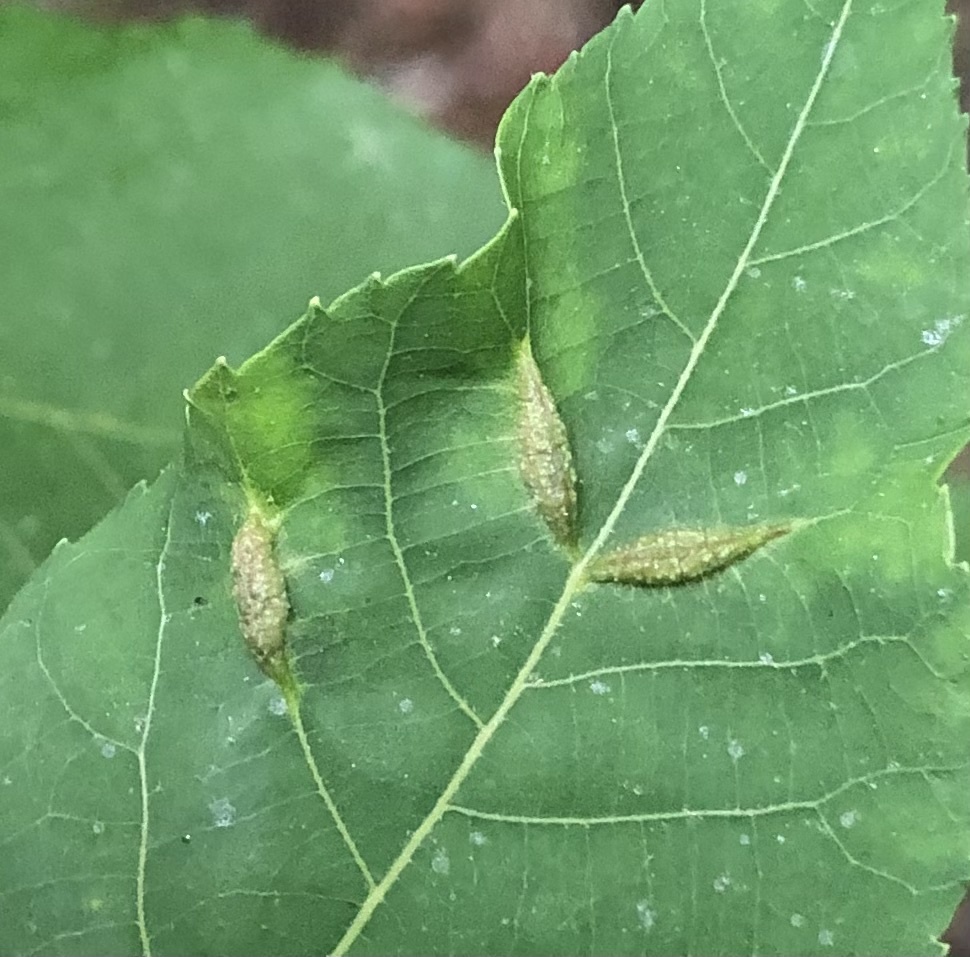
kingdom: Animalia
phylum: Arthropoda
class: Insecta
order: Hemiptera
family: Phylloxeridae
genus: Phylloxera
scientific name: Phylloxera caryaevenae
